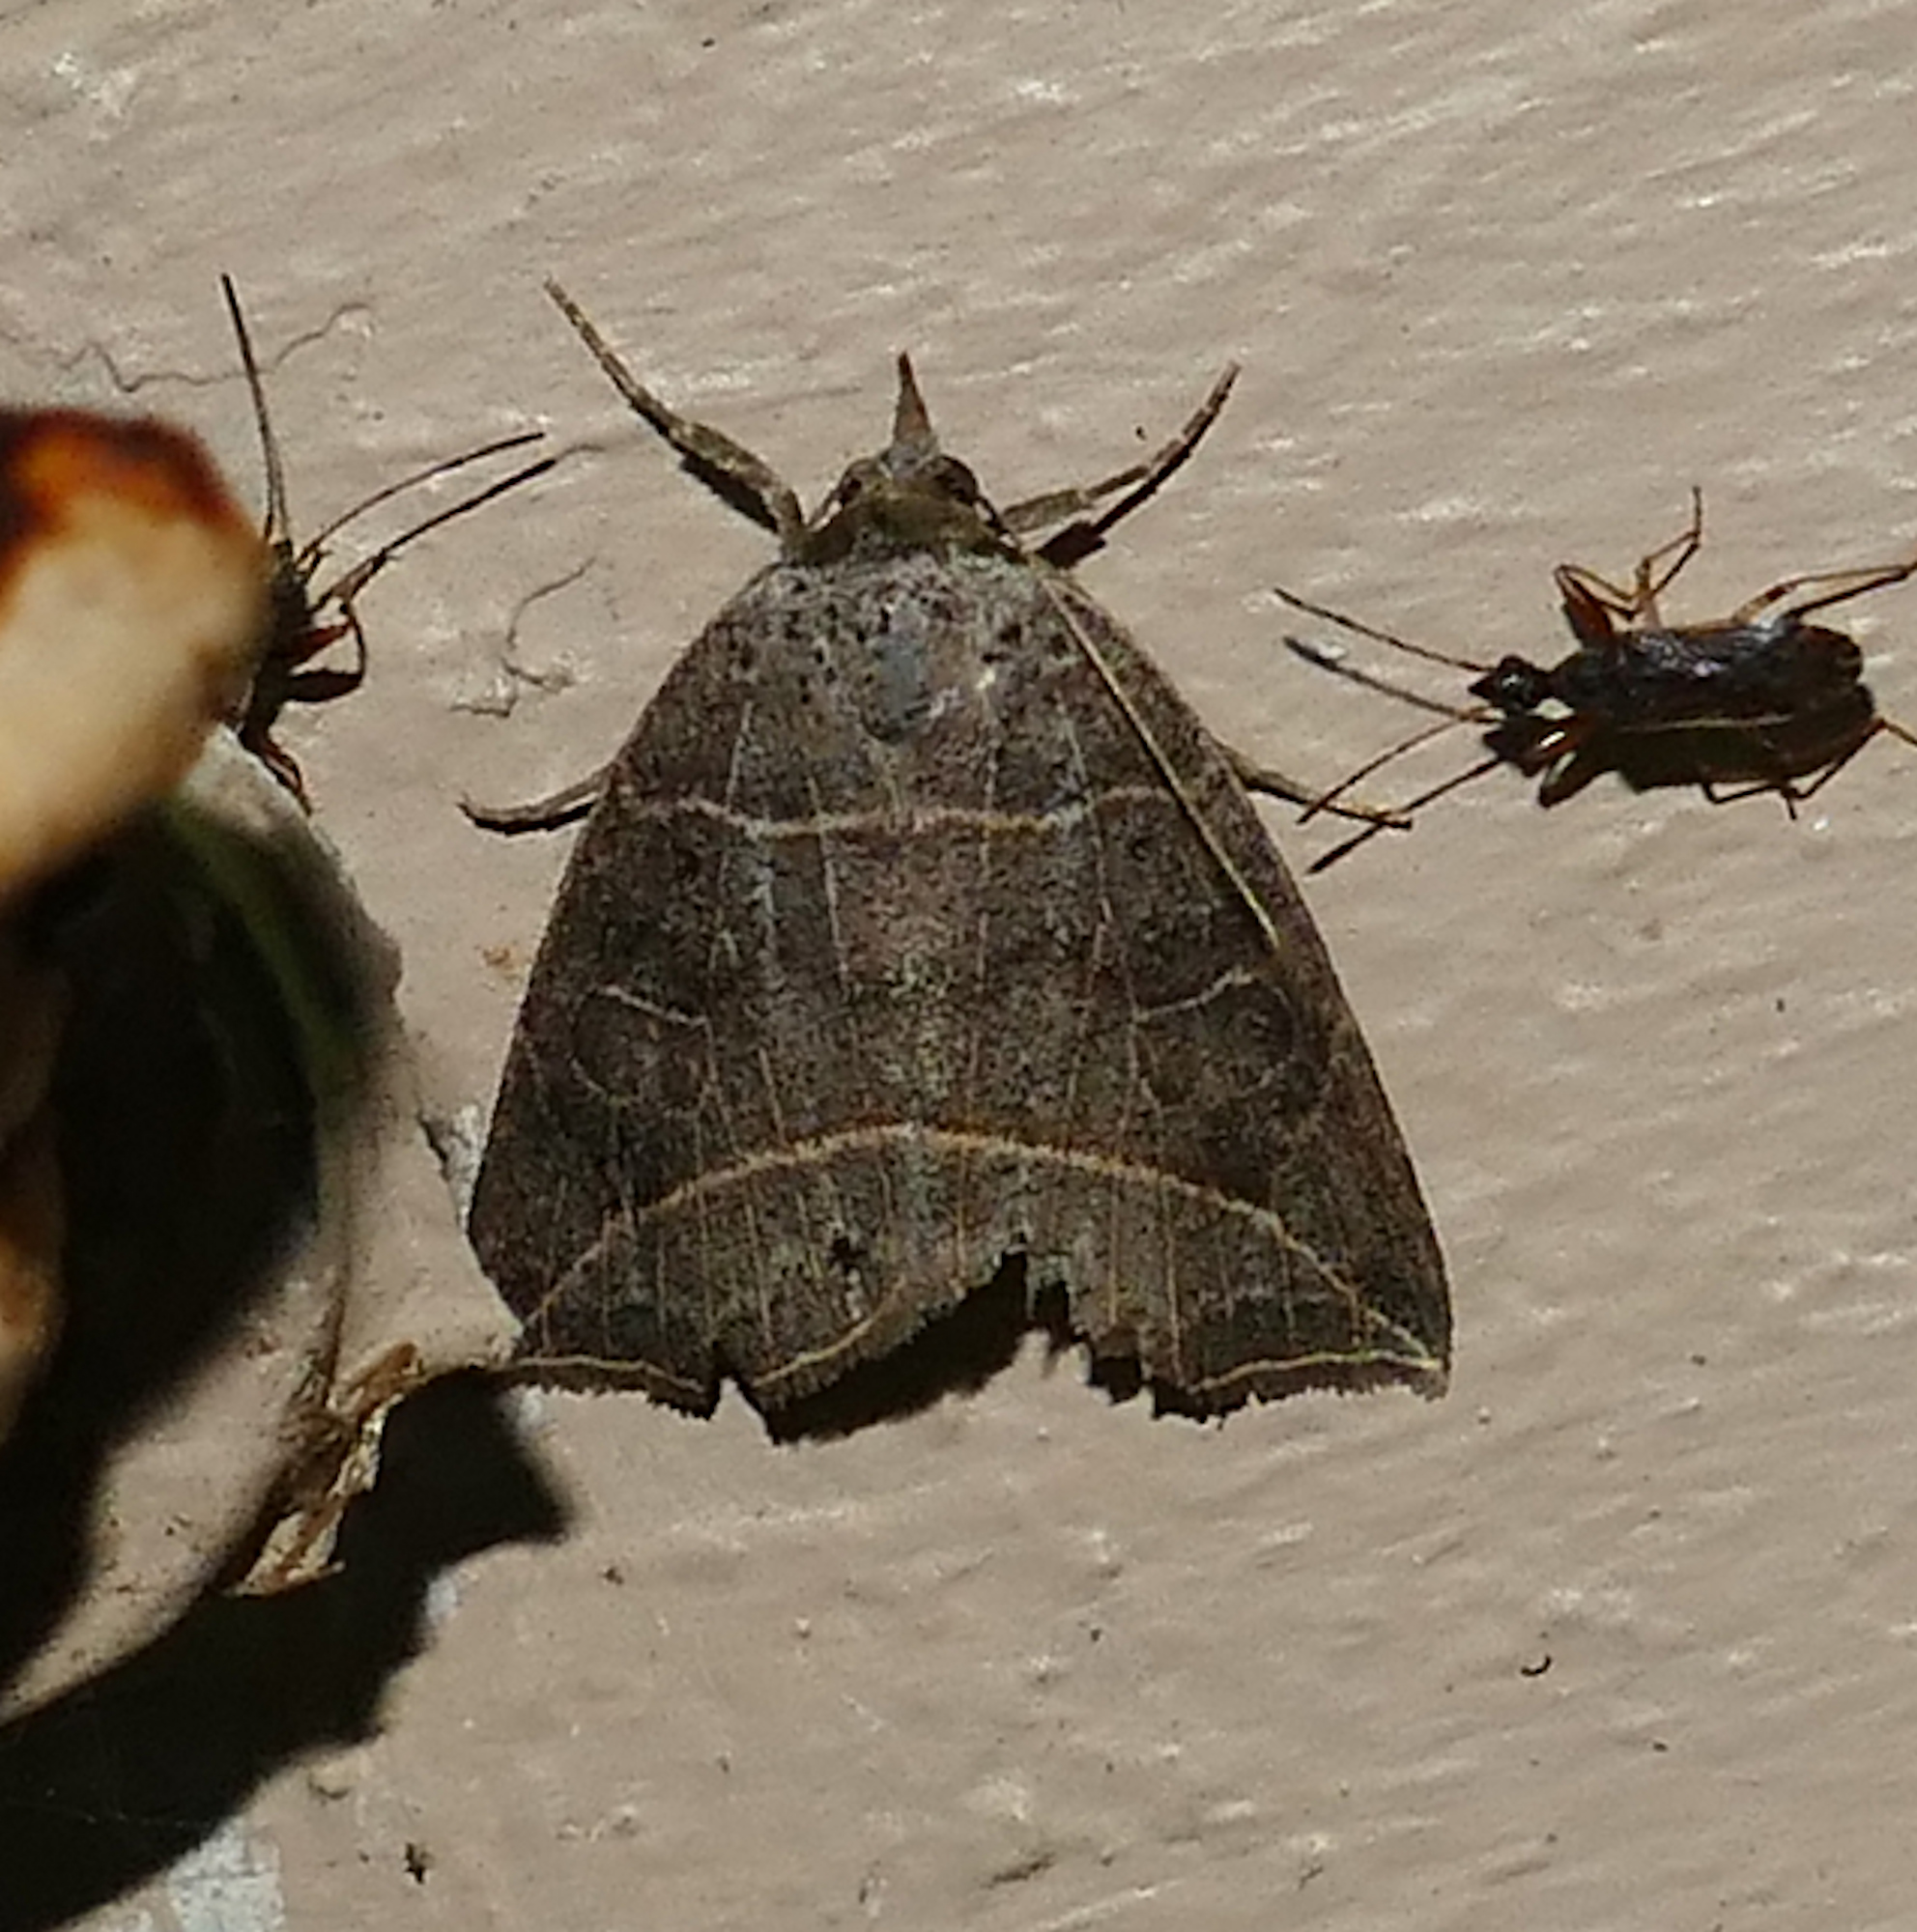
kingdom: Animalia
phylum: Arthropoda
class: Insecta
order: Lepidoptera
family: Erebidae
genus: Isogona
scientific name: Isogona tenuis
